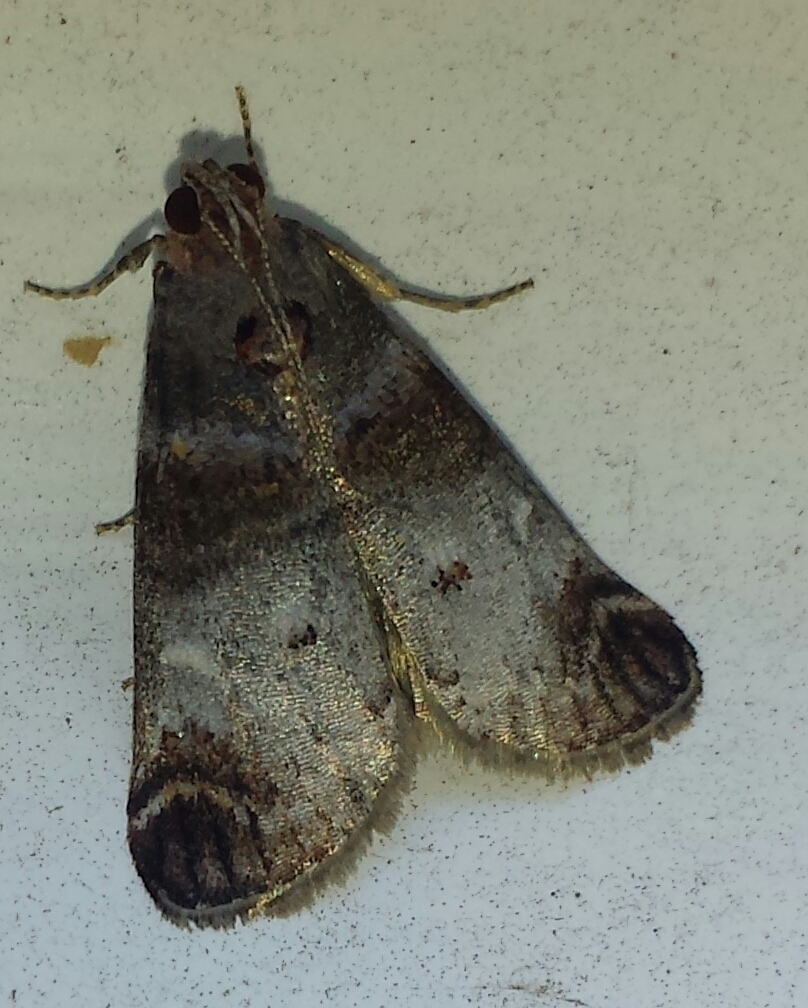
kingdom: Animalia
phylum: Arthropoda
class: Insecta
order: Lepidoptera
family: Pyralidae
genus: Oneida
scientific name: Oneida lunulalis
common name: Orange-tufted oneida moth
